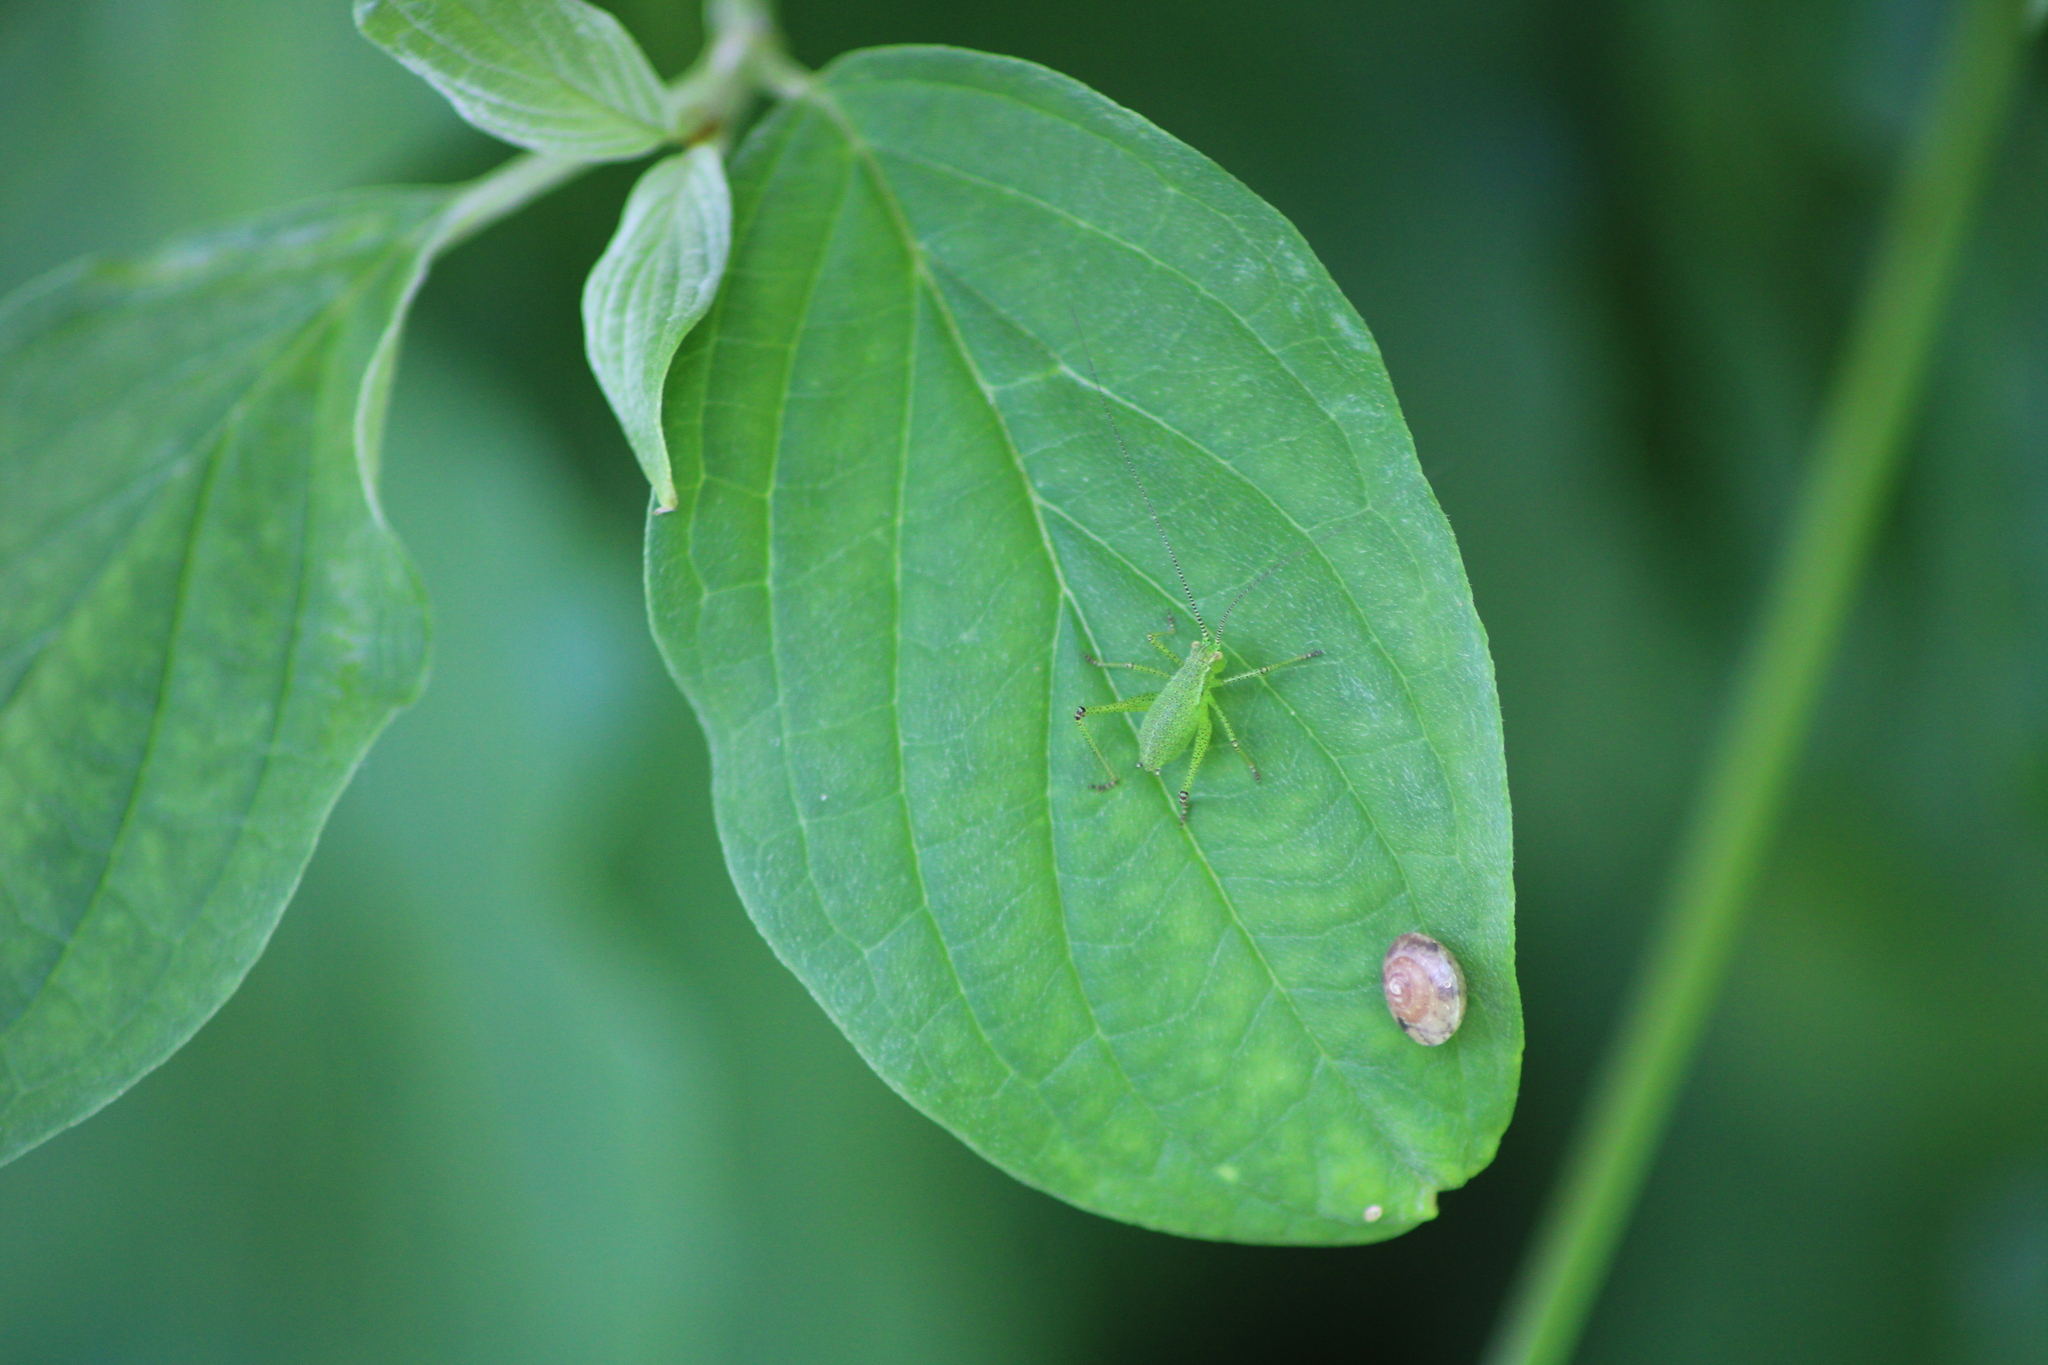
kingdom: Animalia
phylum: Arthropoda
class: Insecta
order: Orthoptera
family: Tettigoniidae
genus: Leptophyes
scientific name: Leptophyes punctatissima
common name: Speckled bush-cricket
